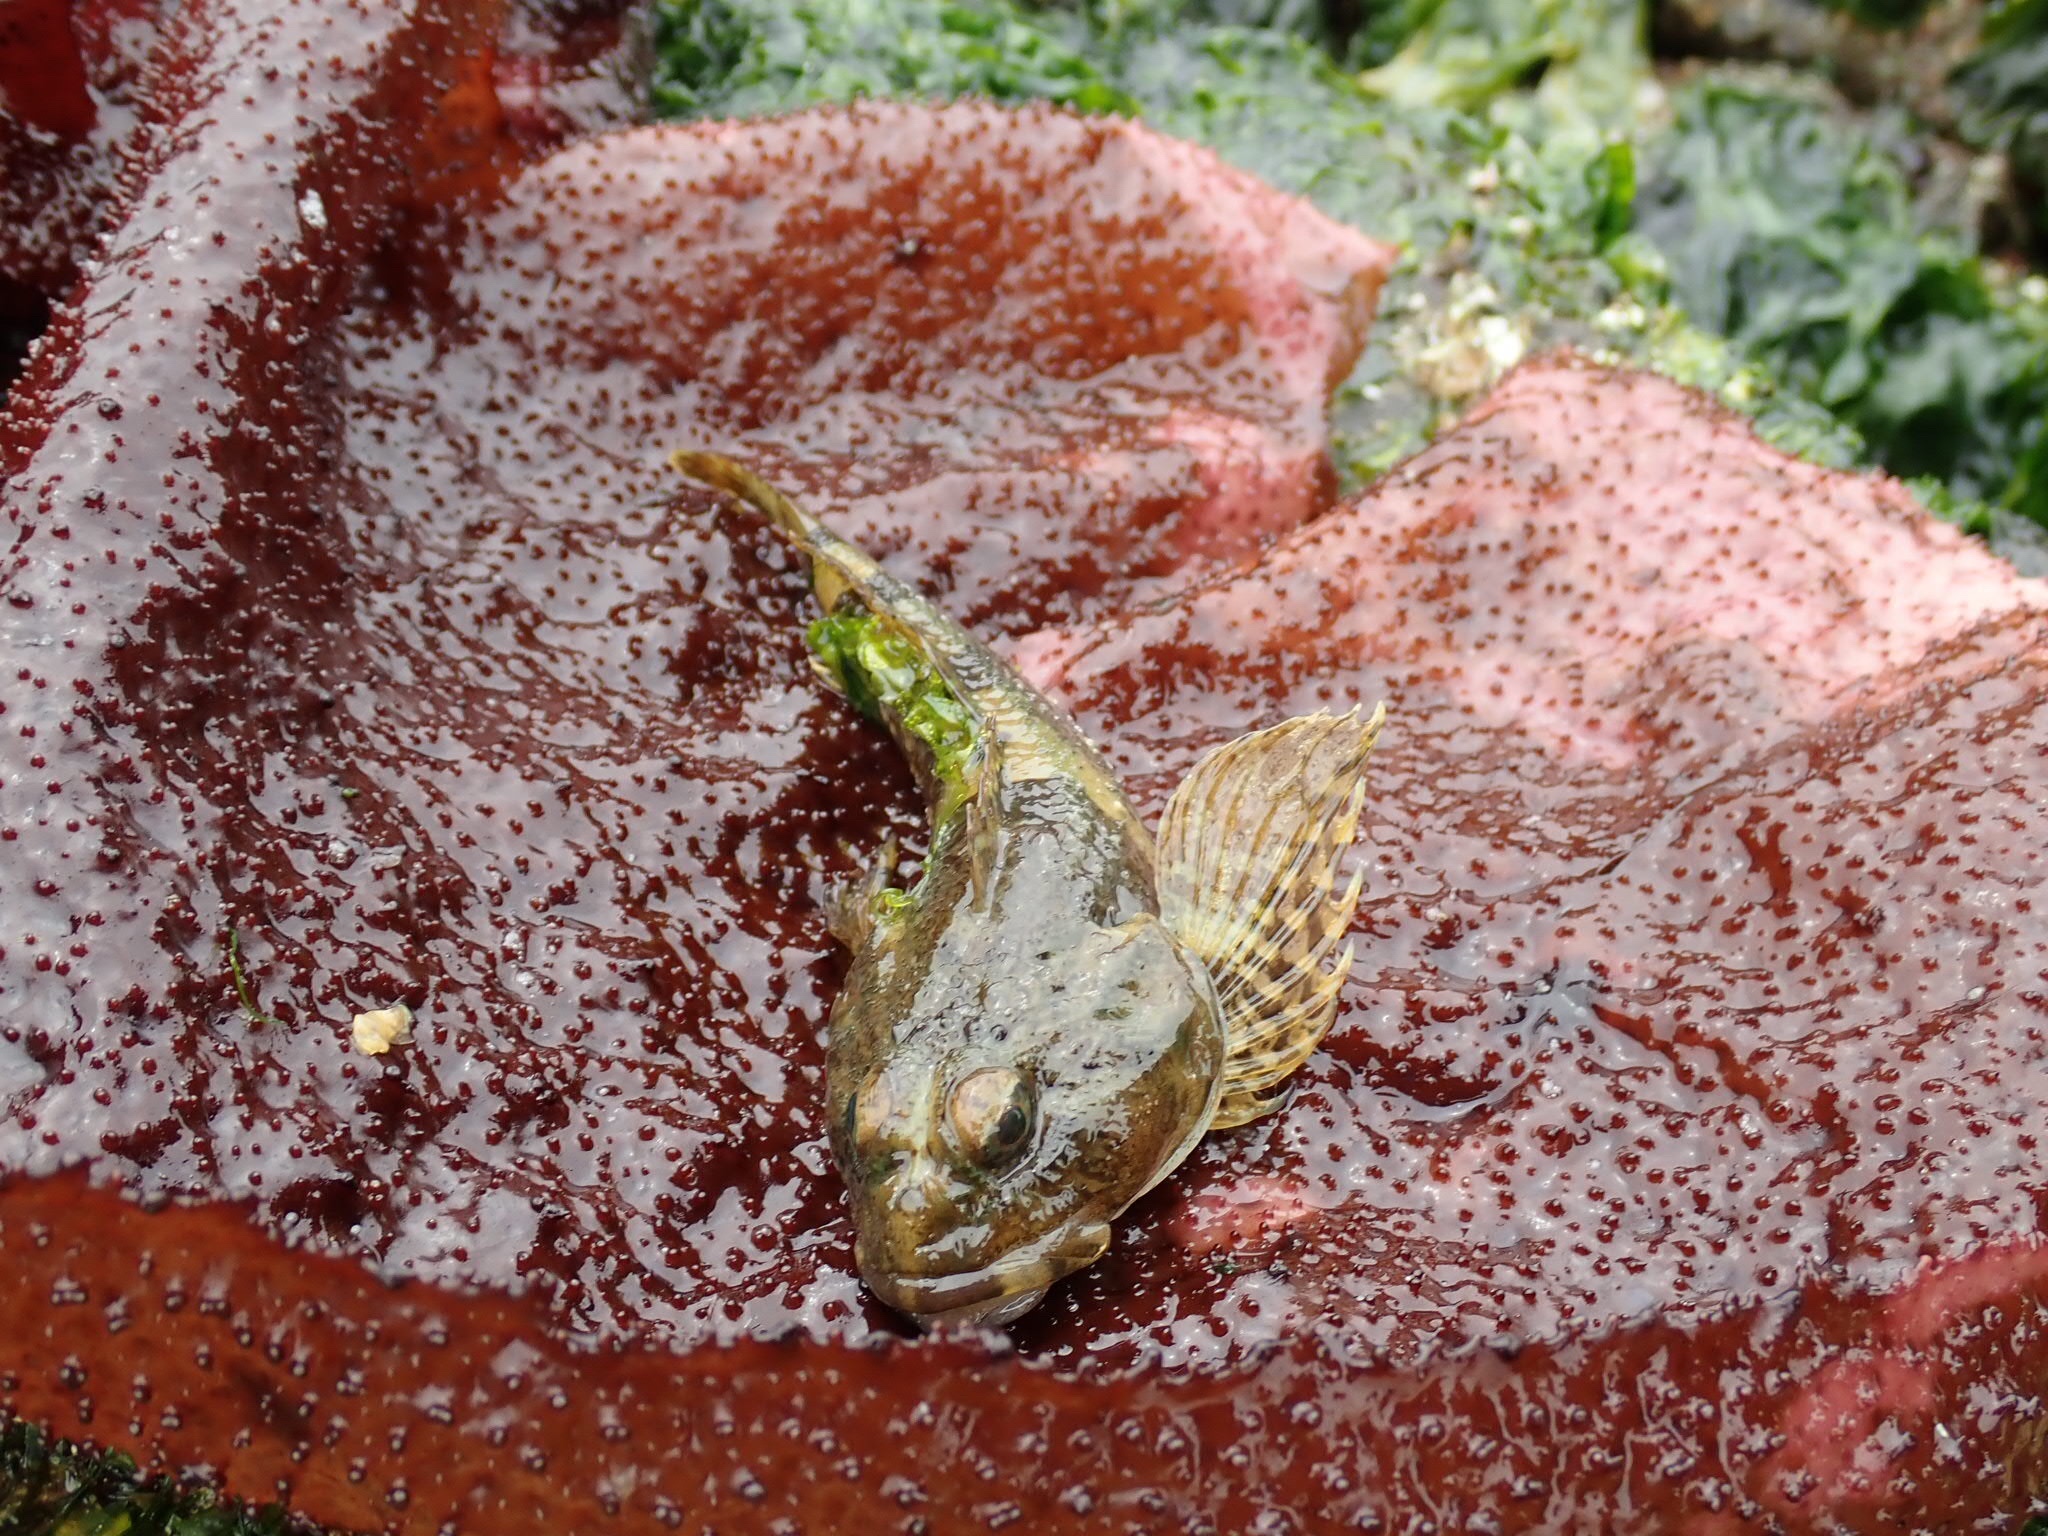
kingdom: Animalia
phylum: Chordata
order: Scorpaeniformes
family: Cottidae
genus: Artedius
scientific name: Artedius fenestralis
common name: Padded sculpin
